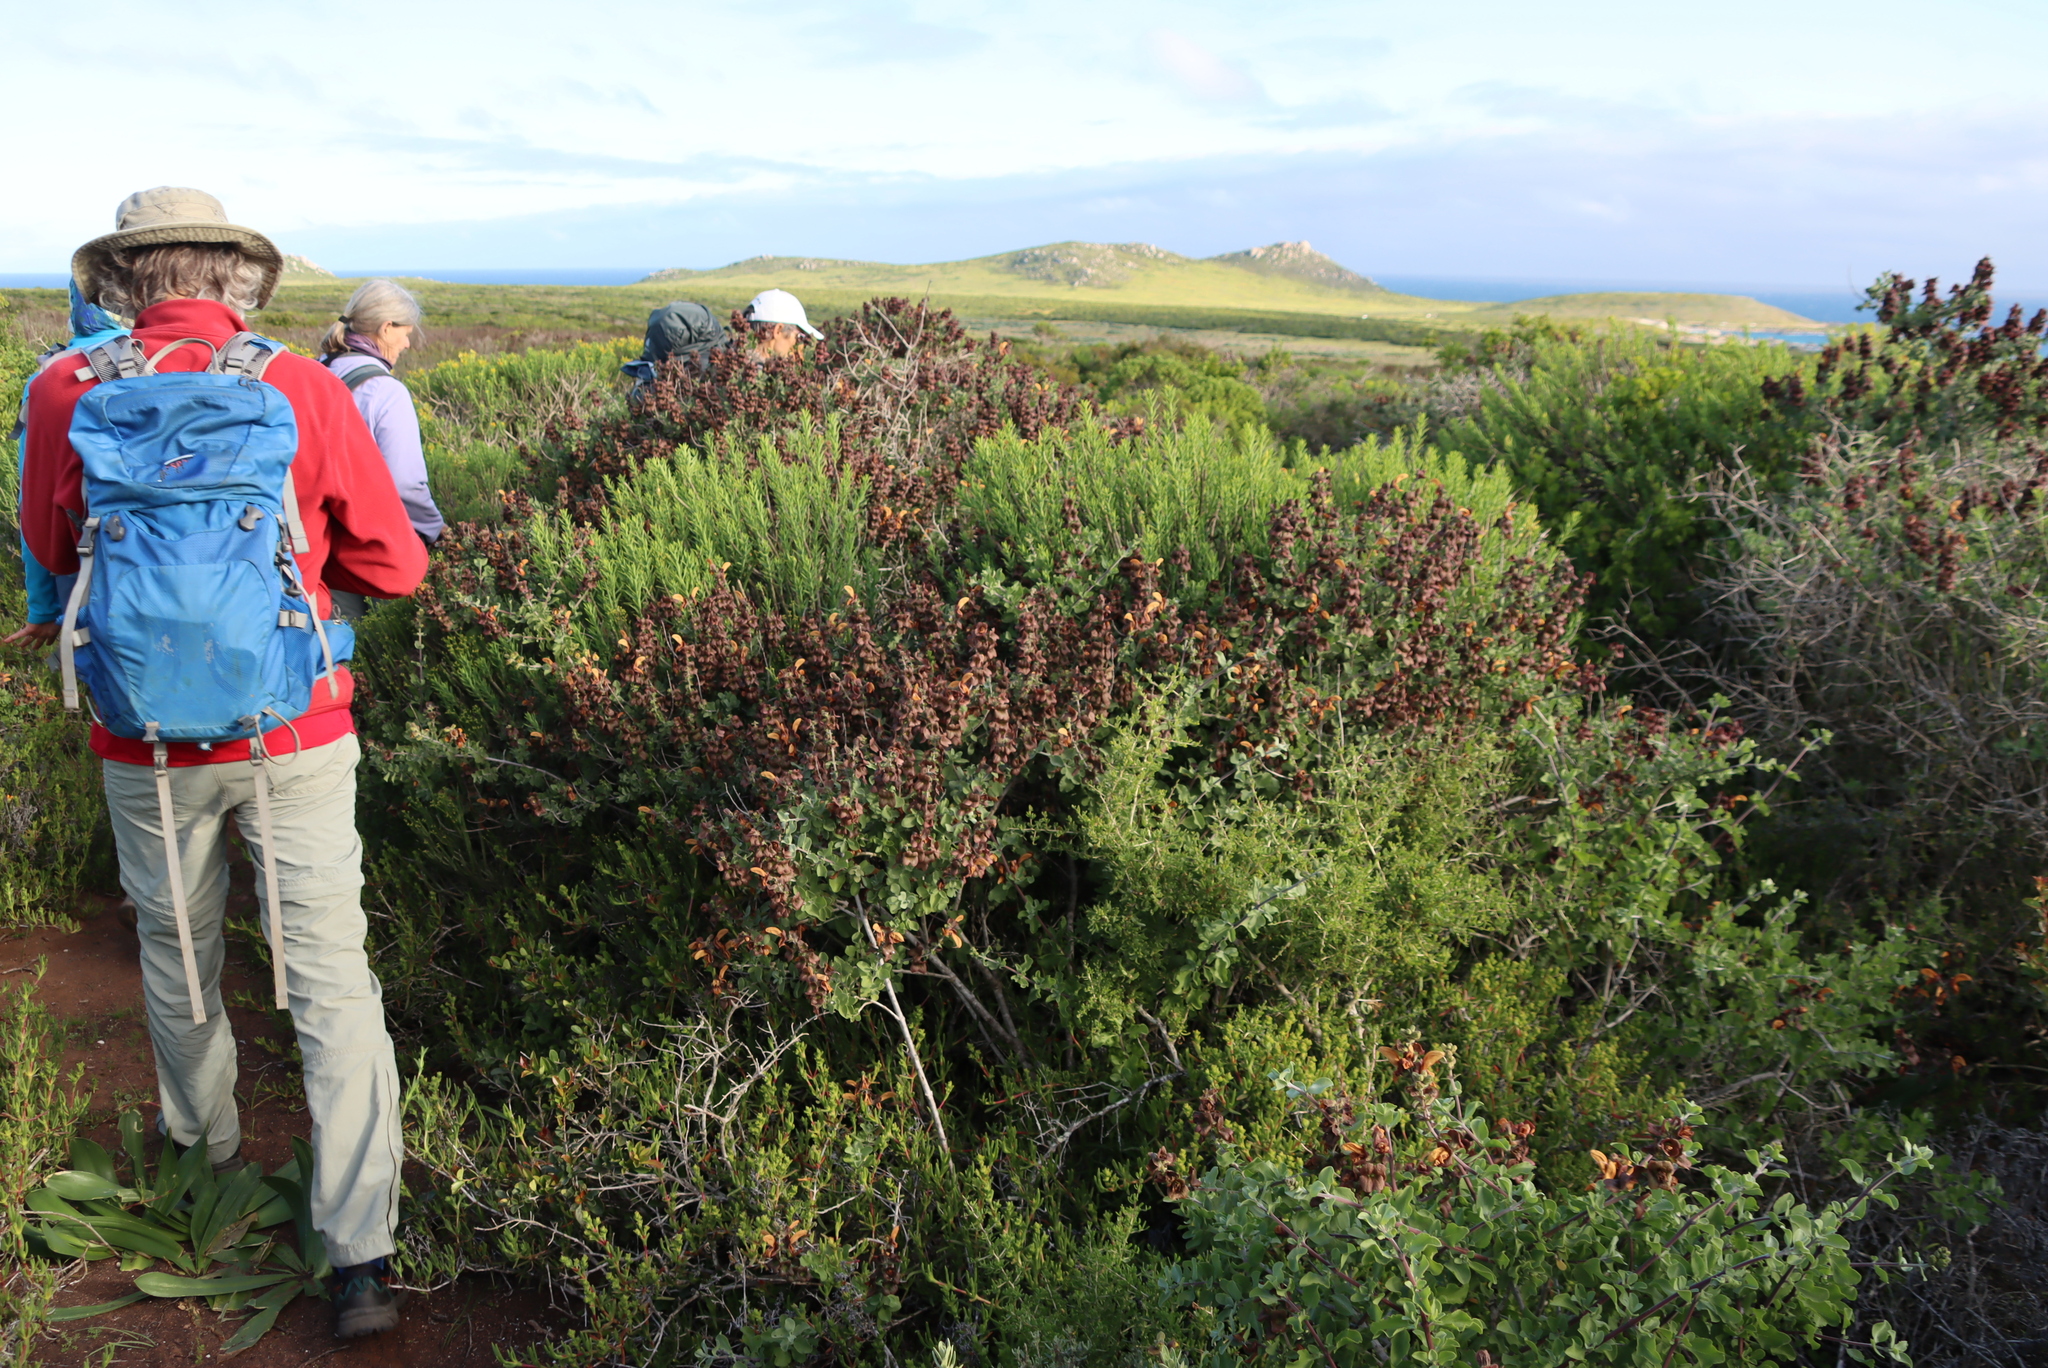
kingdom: Plantae
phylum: Tracheophyta
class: Magnoliopsida
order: Lamiales
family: Lamiaceae
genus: Salvia
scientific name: Salvia aurea
